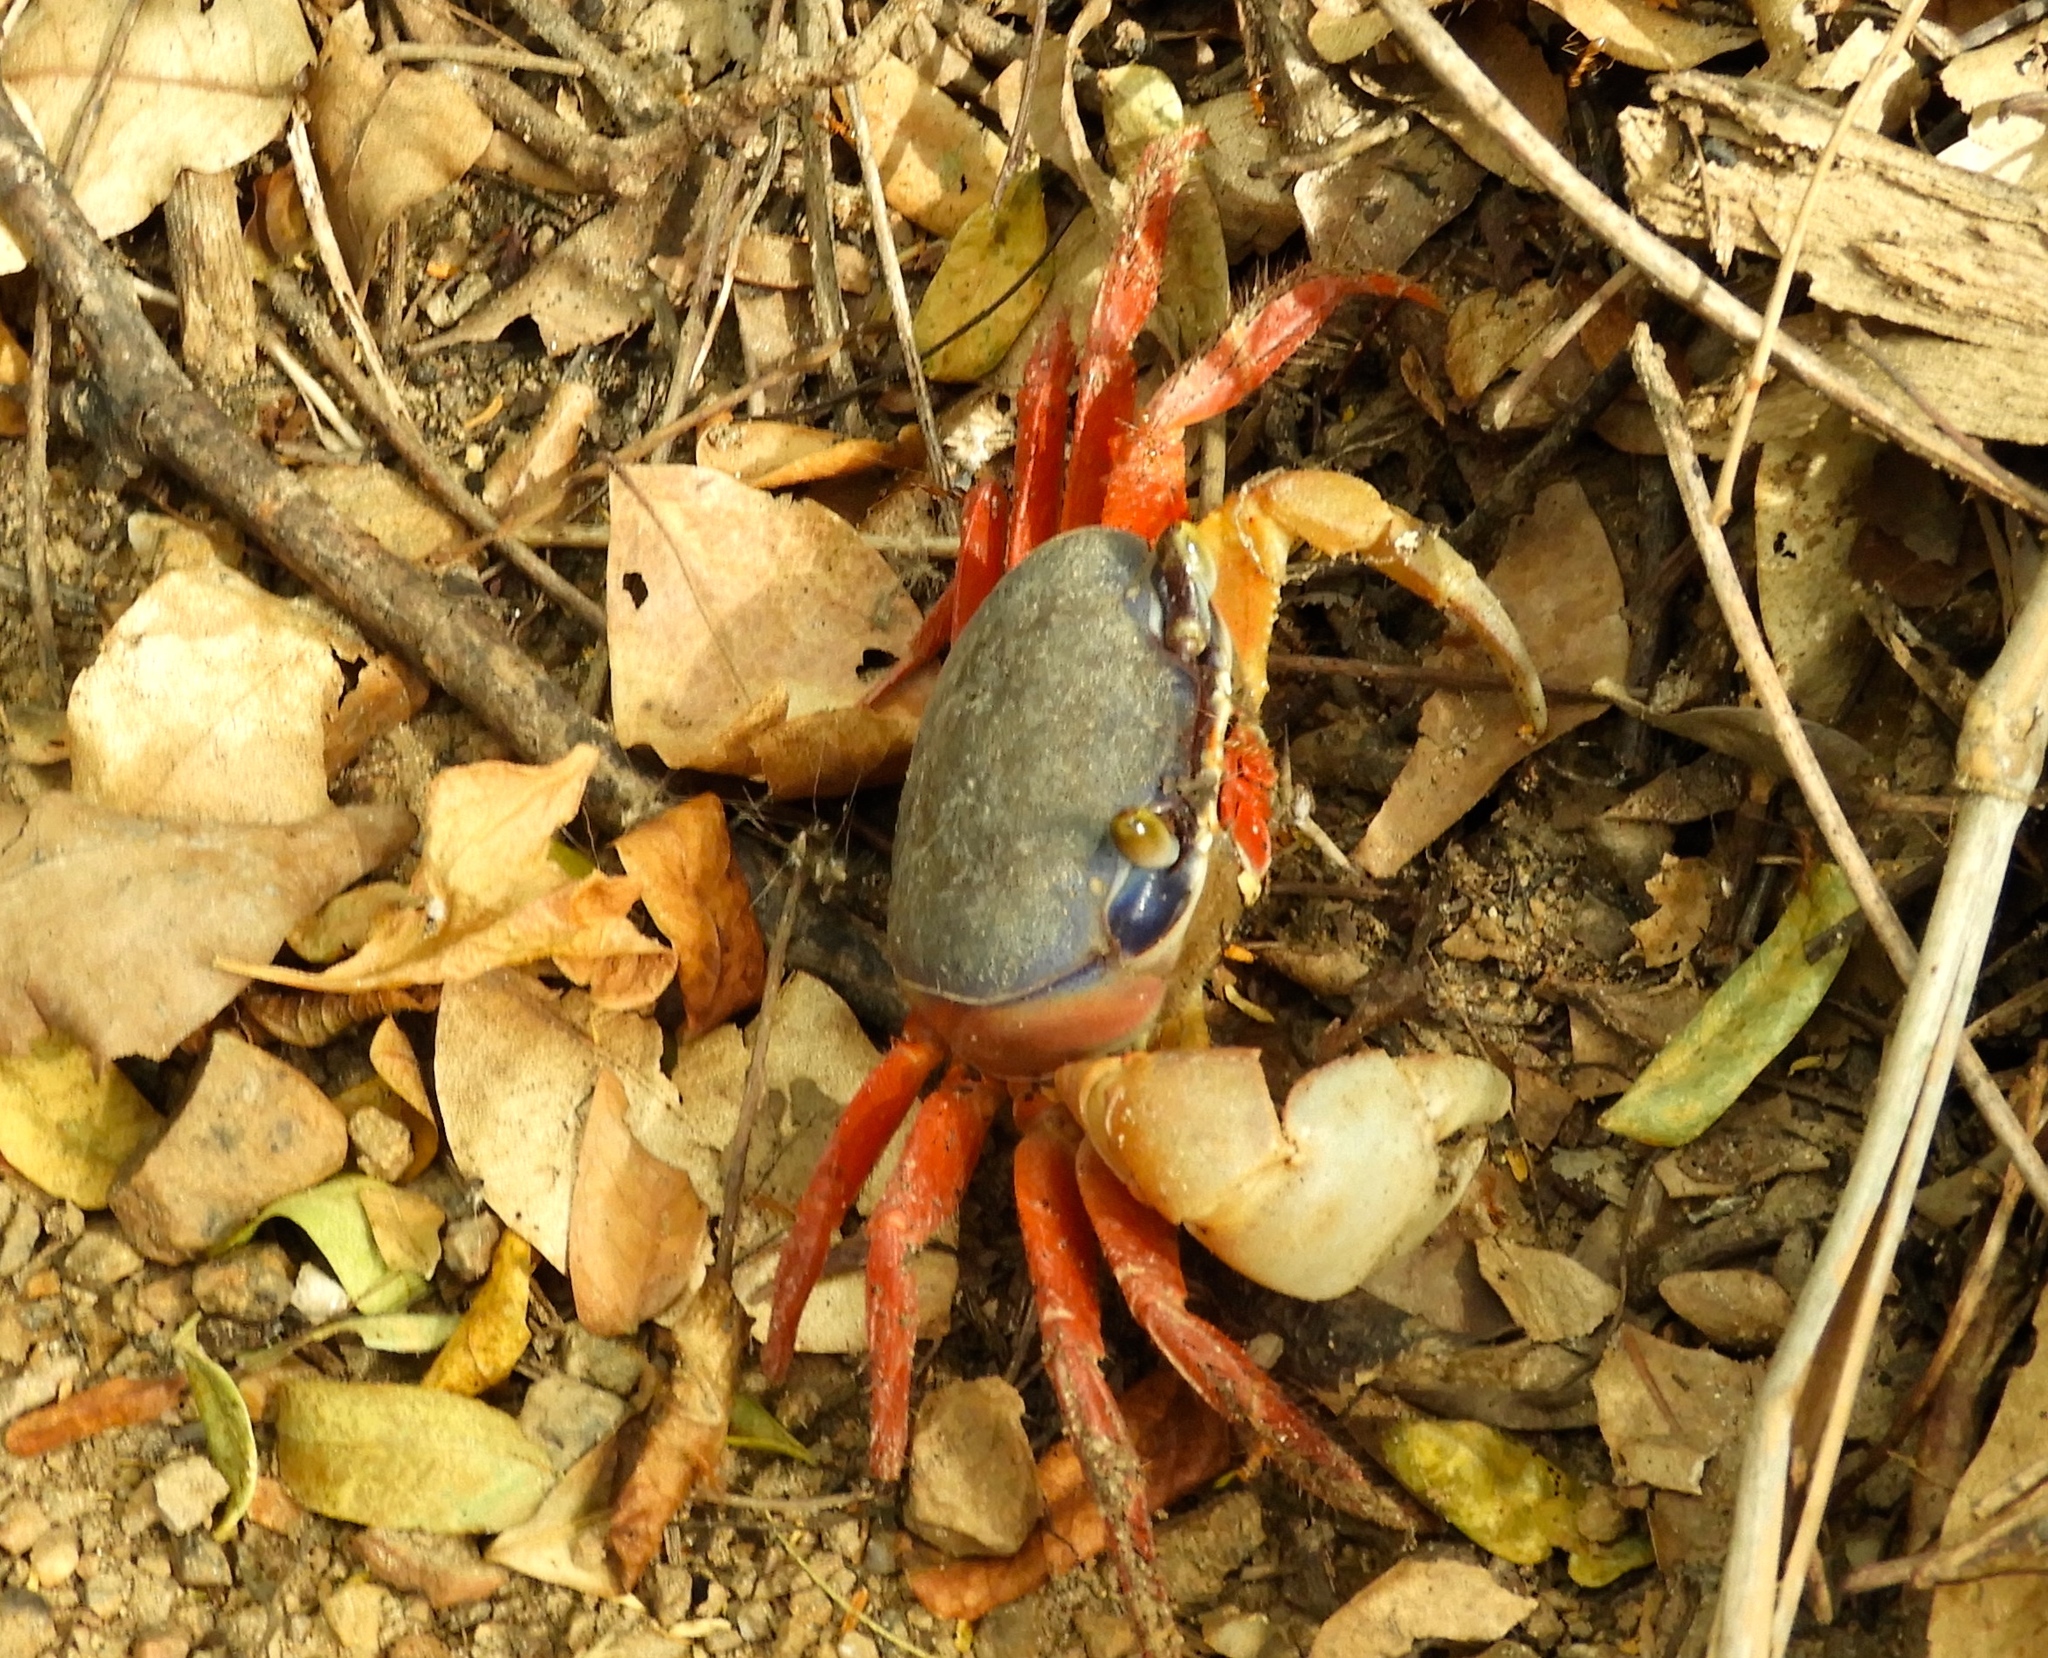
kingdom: Animalia
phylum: Arthropoda
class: Malacostraca
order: Decapoda
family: Gecarcinidae
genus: Cardisoma
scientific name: Cardisoma crassum
